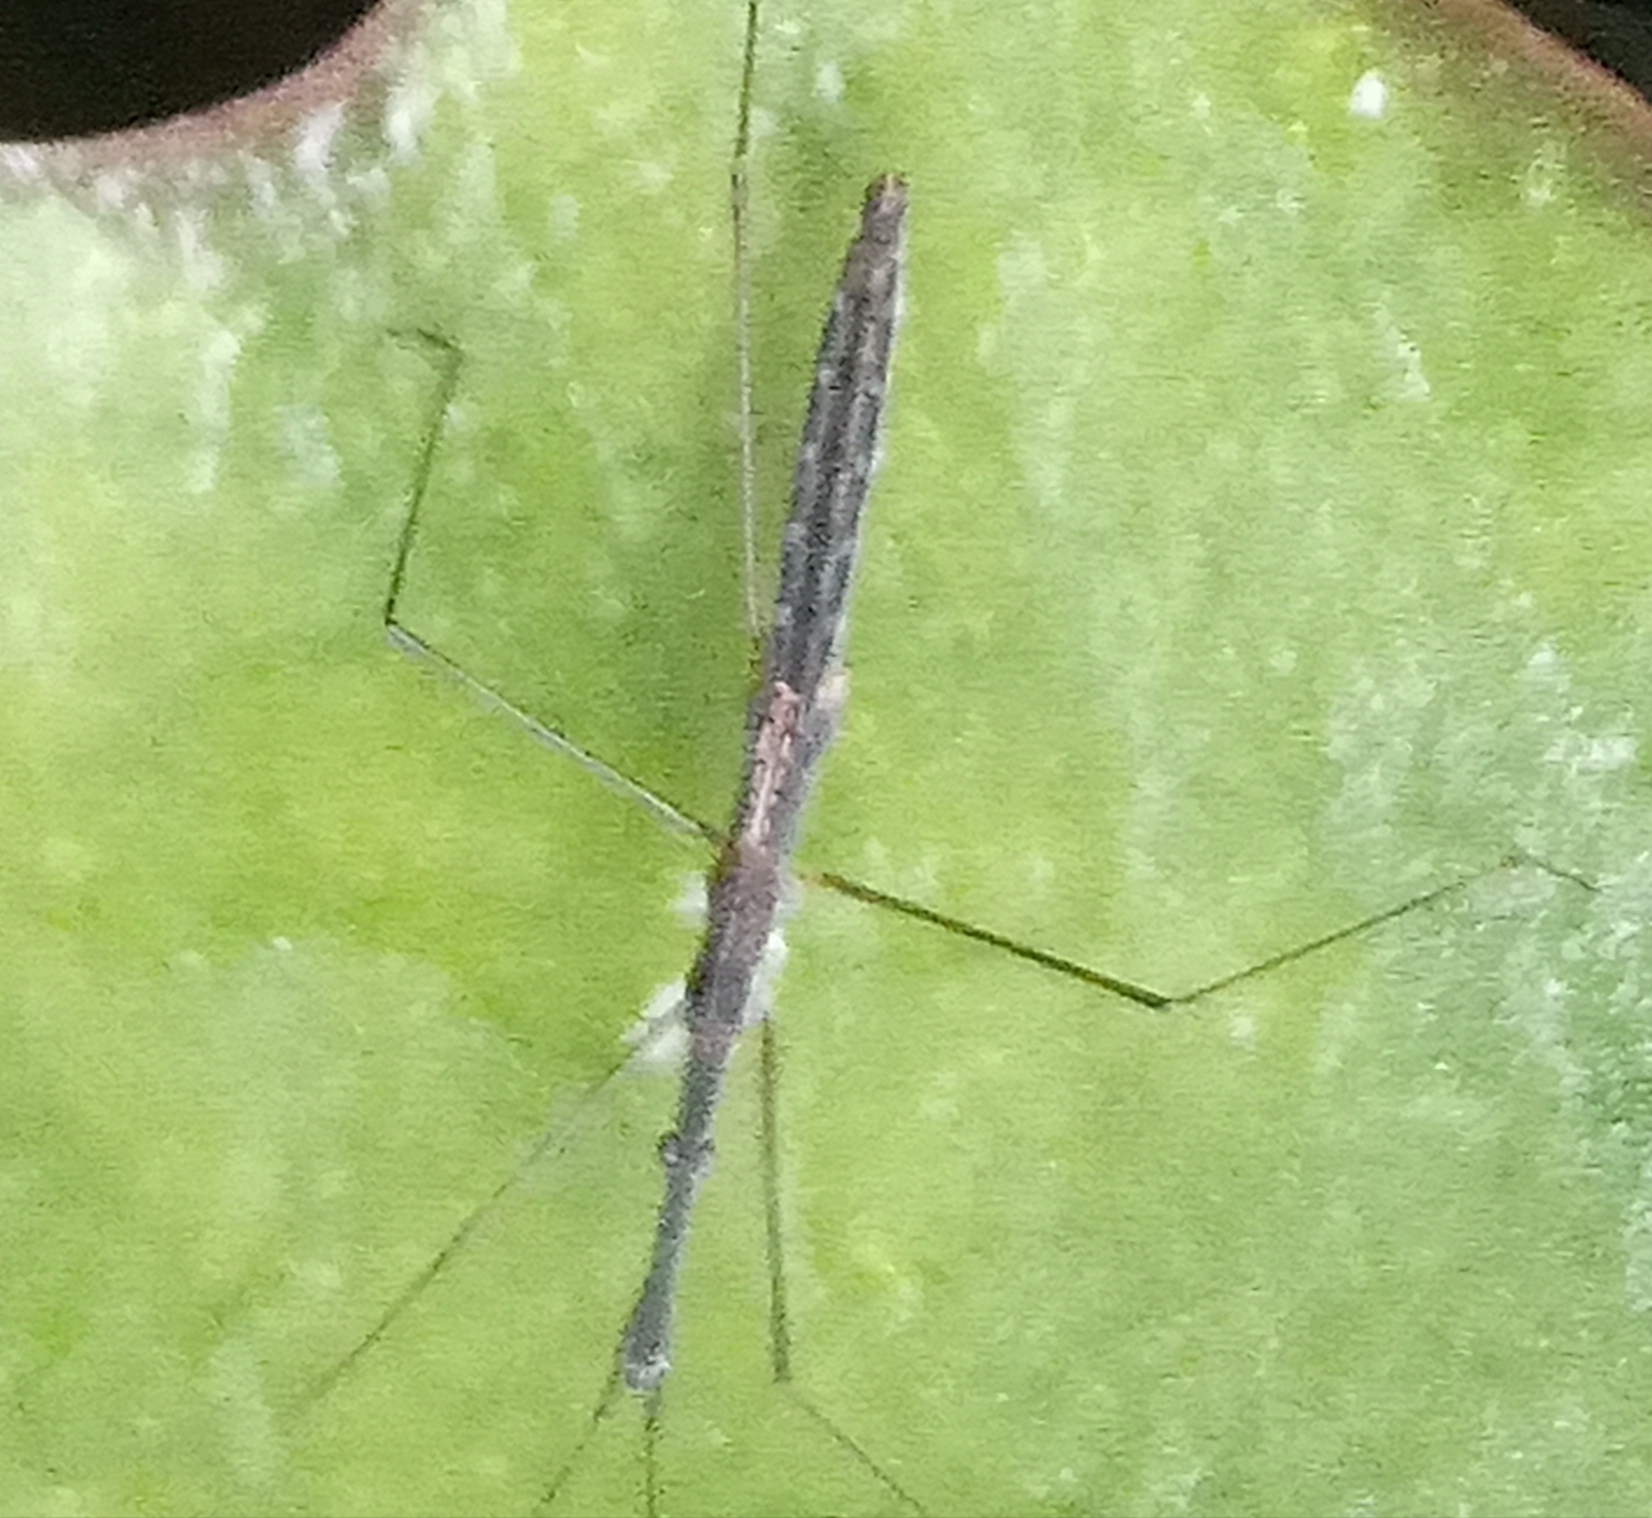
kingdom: Animalia
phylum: Arthropoda
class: Insecta
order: Hemiptera
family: Hydrometridae
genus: Hydrometra
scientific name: Hydrometra stagnorum
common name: Water measurer
